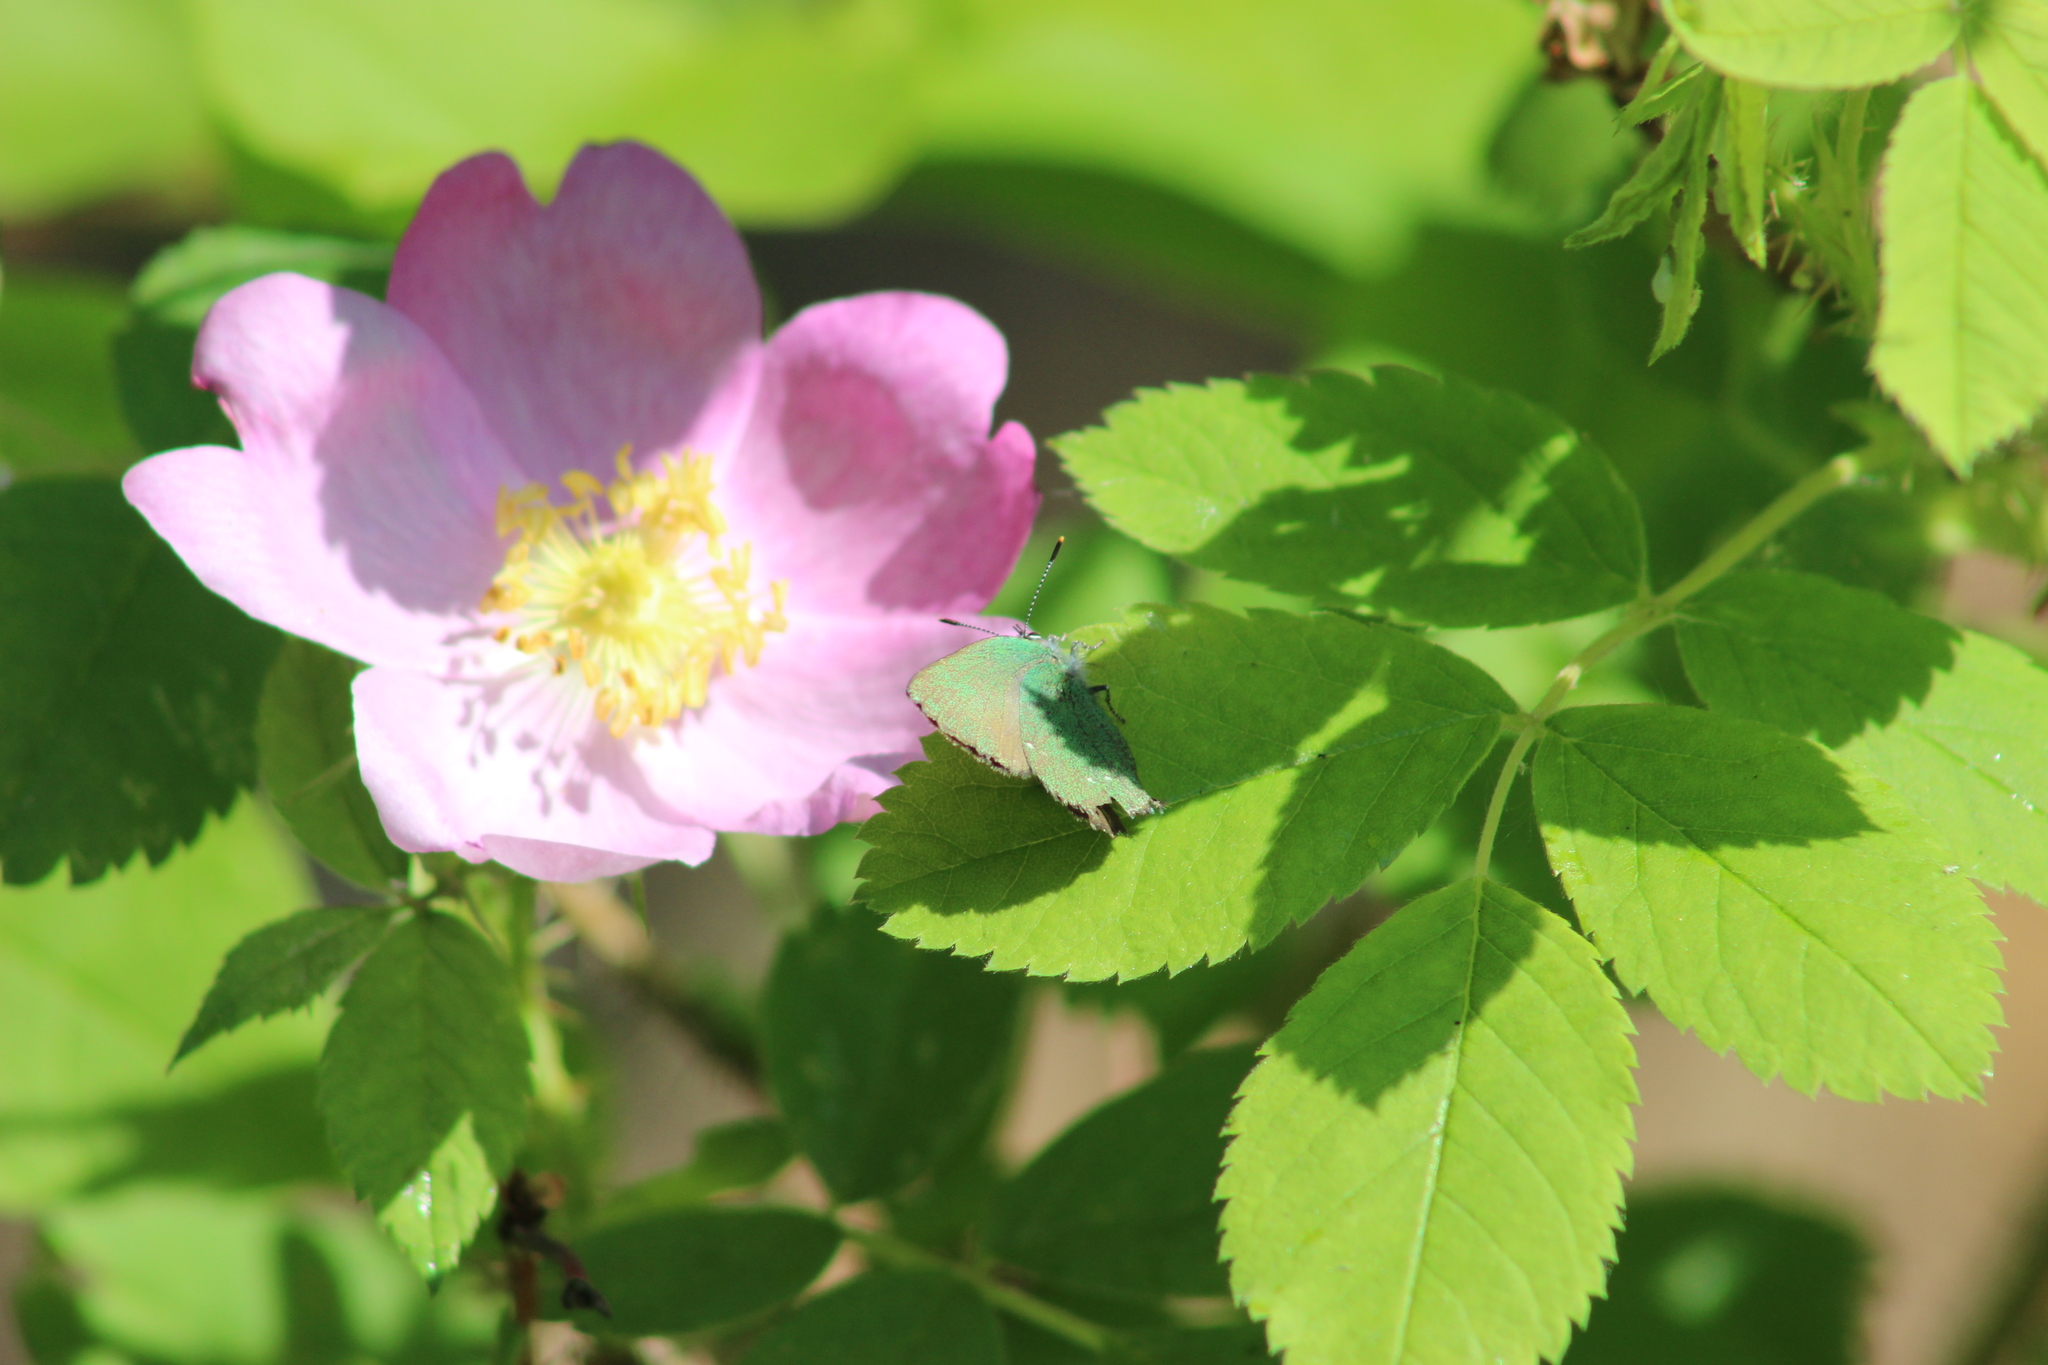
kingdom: Animalia
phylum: Arthropoda
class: Insecta
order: Lepidoptera
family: Lycaenidae
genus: Callophrys
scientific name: Callophrys rubi
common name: Green hairstreak
